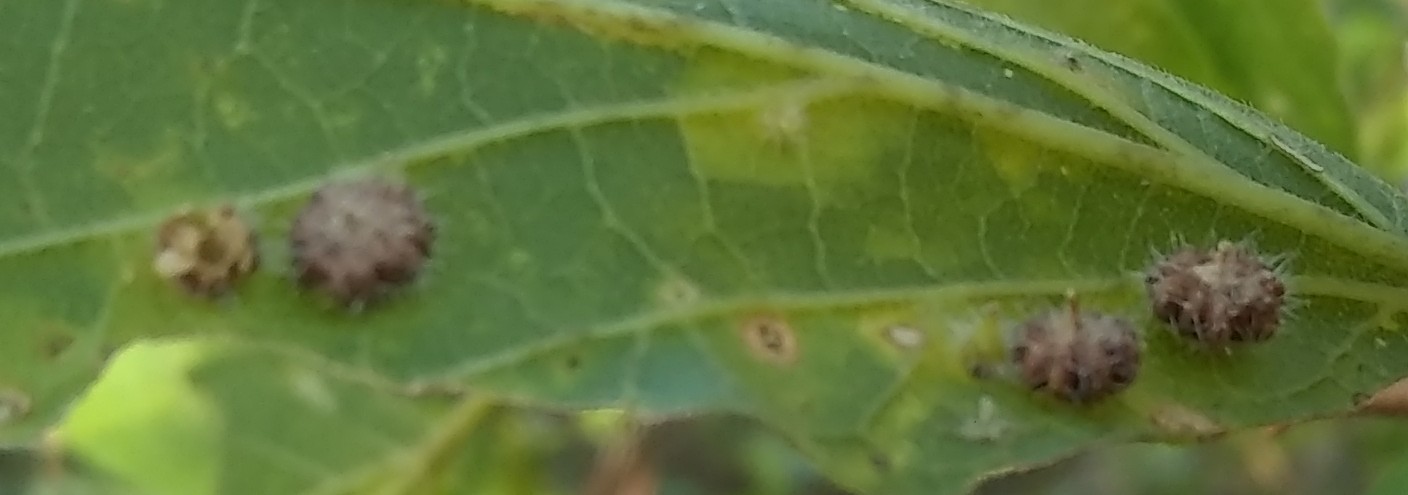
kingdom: Animalia
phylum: Arthropoda
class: Insecta
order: Diptera
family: Cecidomyiidae
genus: Celticecis
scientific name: Celticecis capsularis
